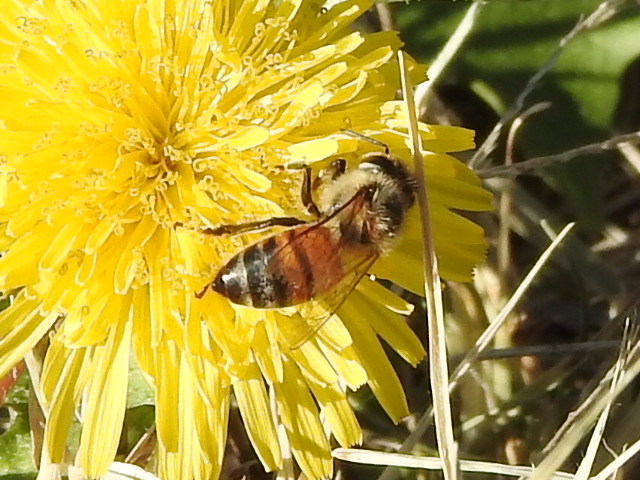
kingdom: Animalia
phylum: Arthropoda
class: Insecta
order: Hymenoptera
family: Apidae
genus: Apis
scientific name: Apis mellifera
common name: Honey bee
